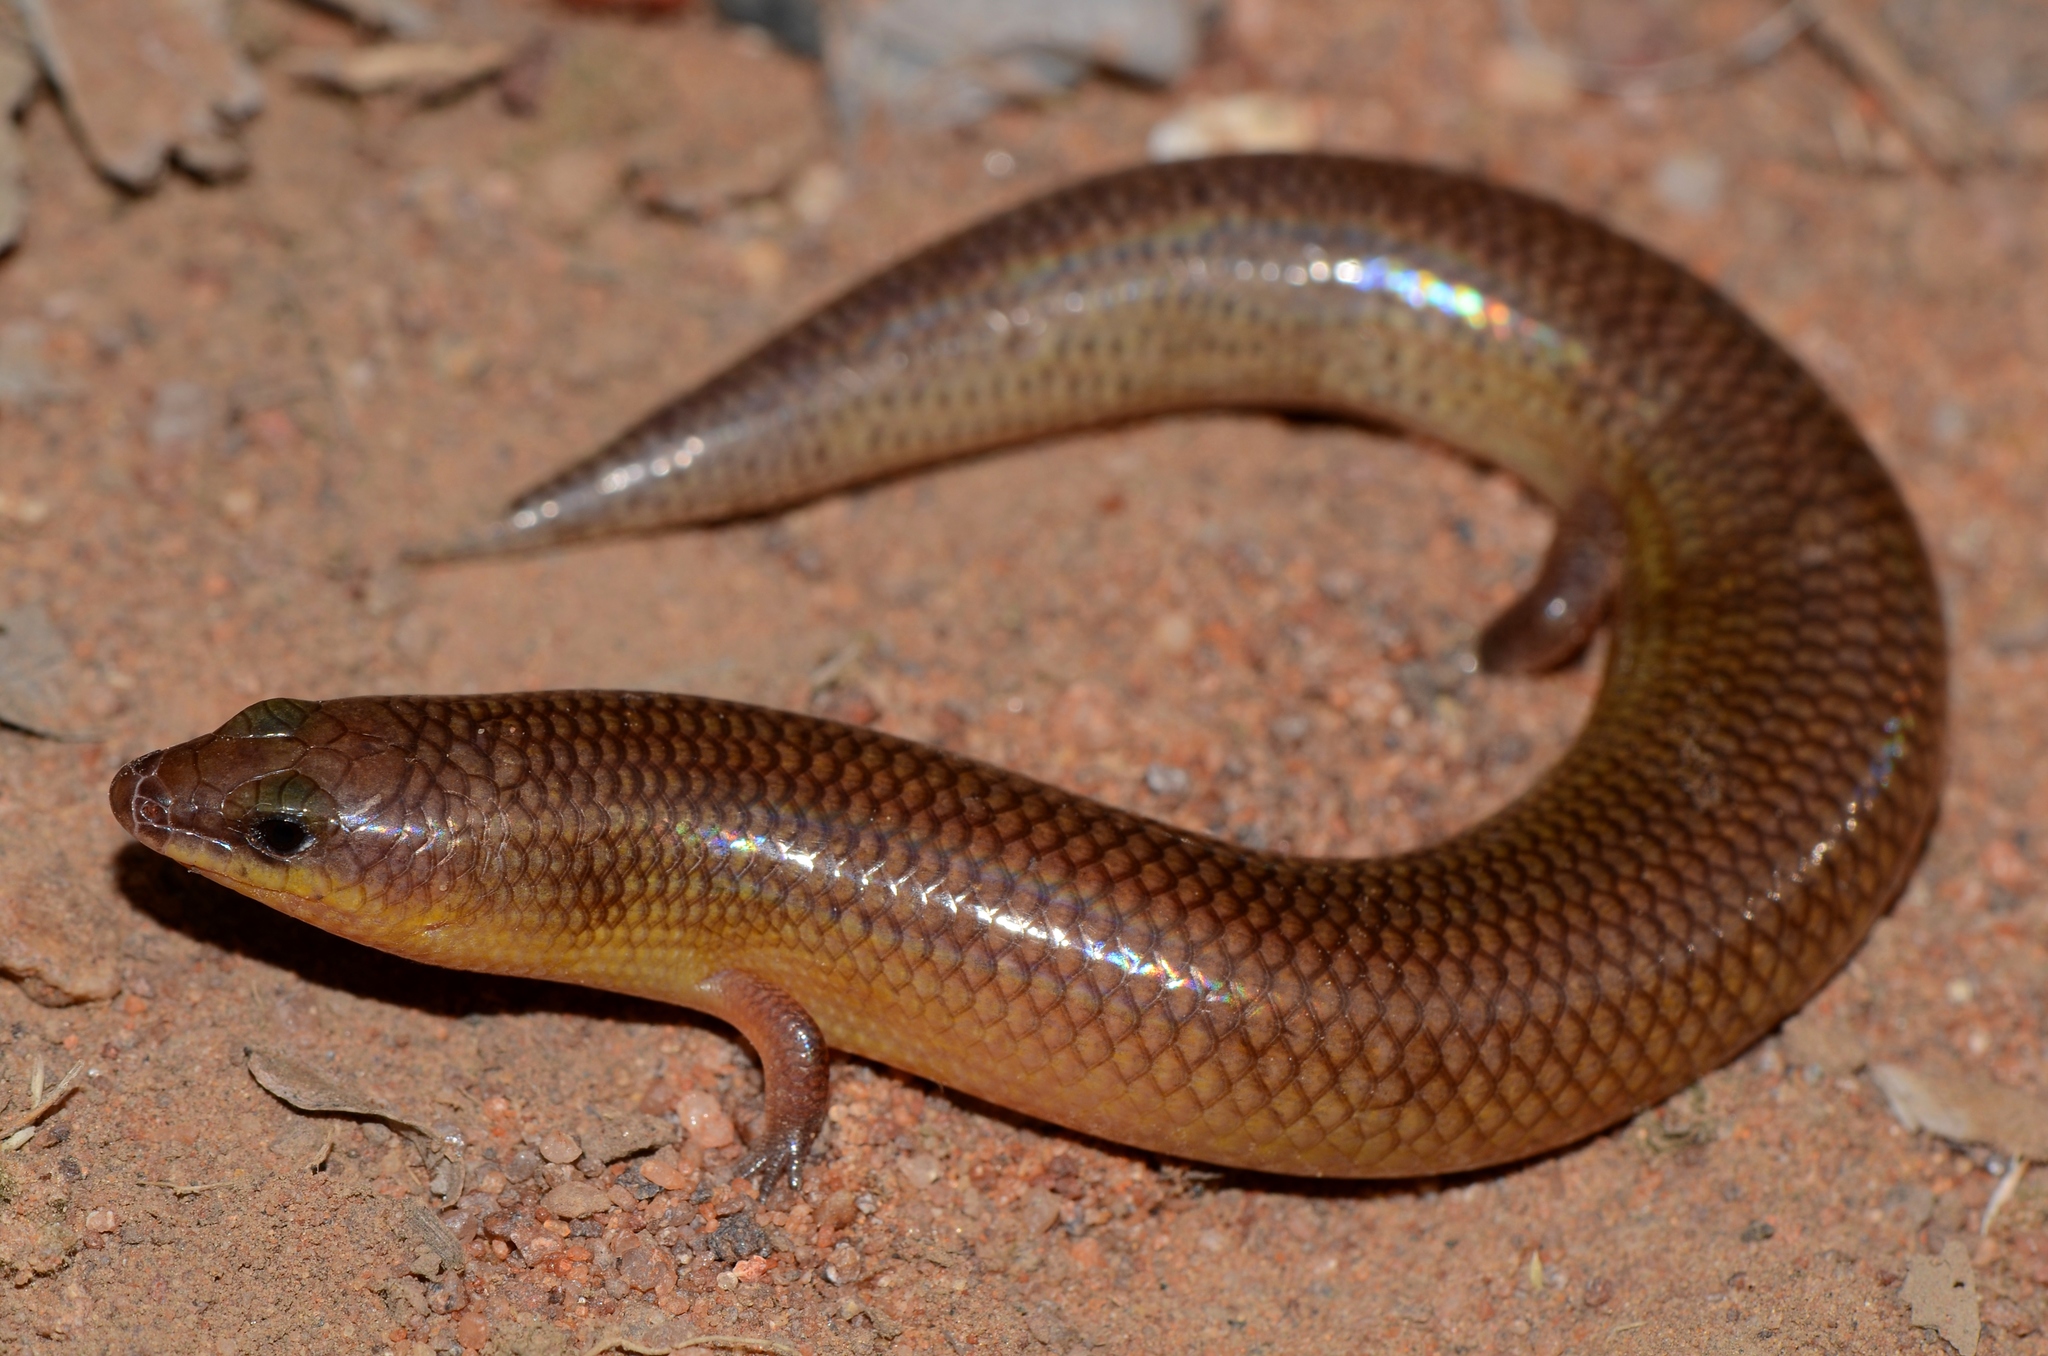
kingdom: Animalia
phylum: Chordata
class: Squamata
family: Scincidae
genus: Mochlus
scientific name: Mochlus sundevallii
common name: Peters' eyelid skink
